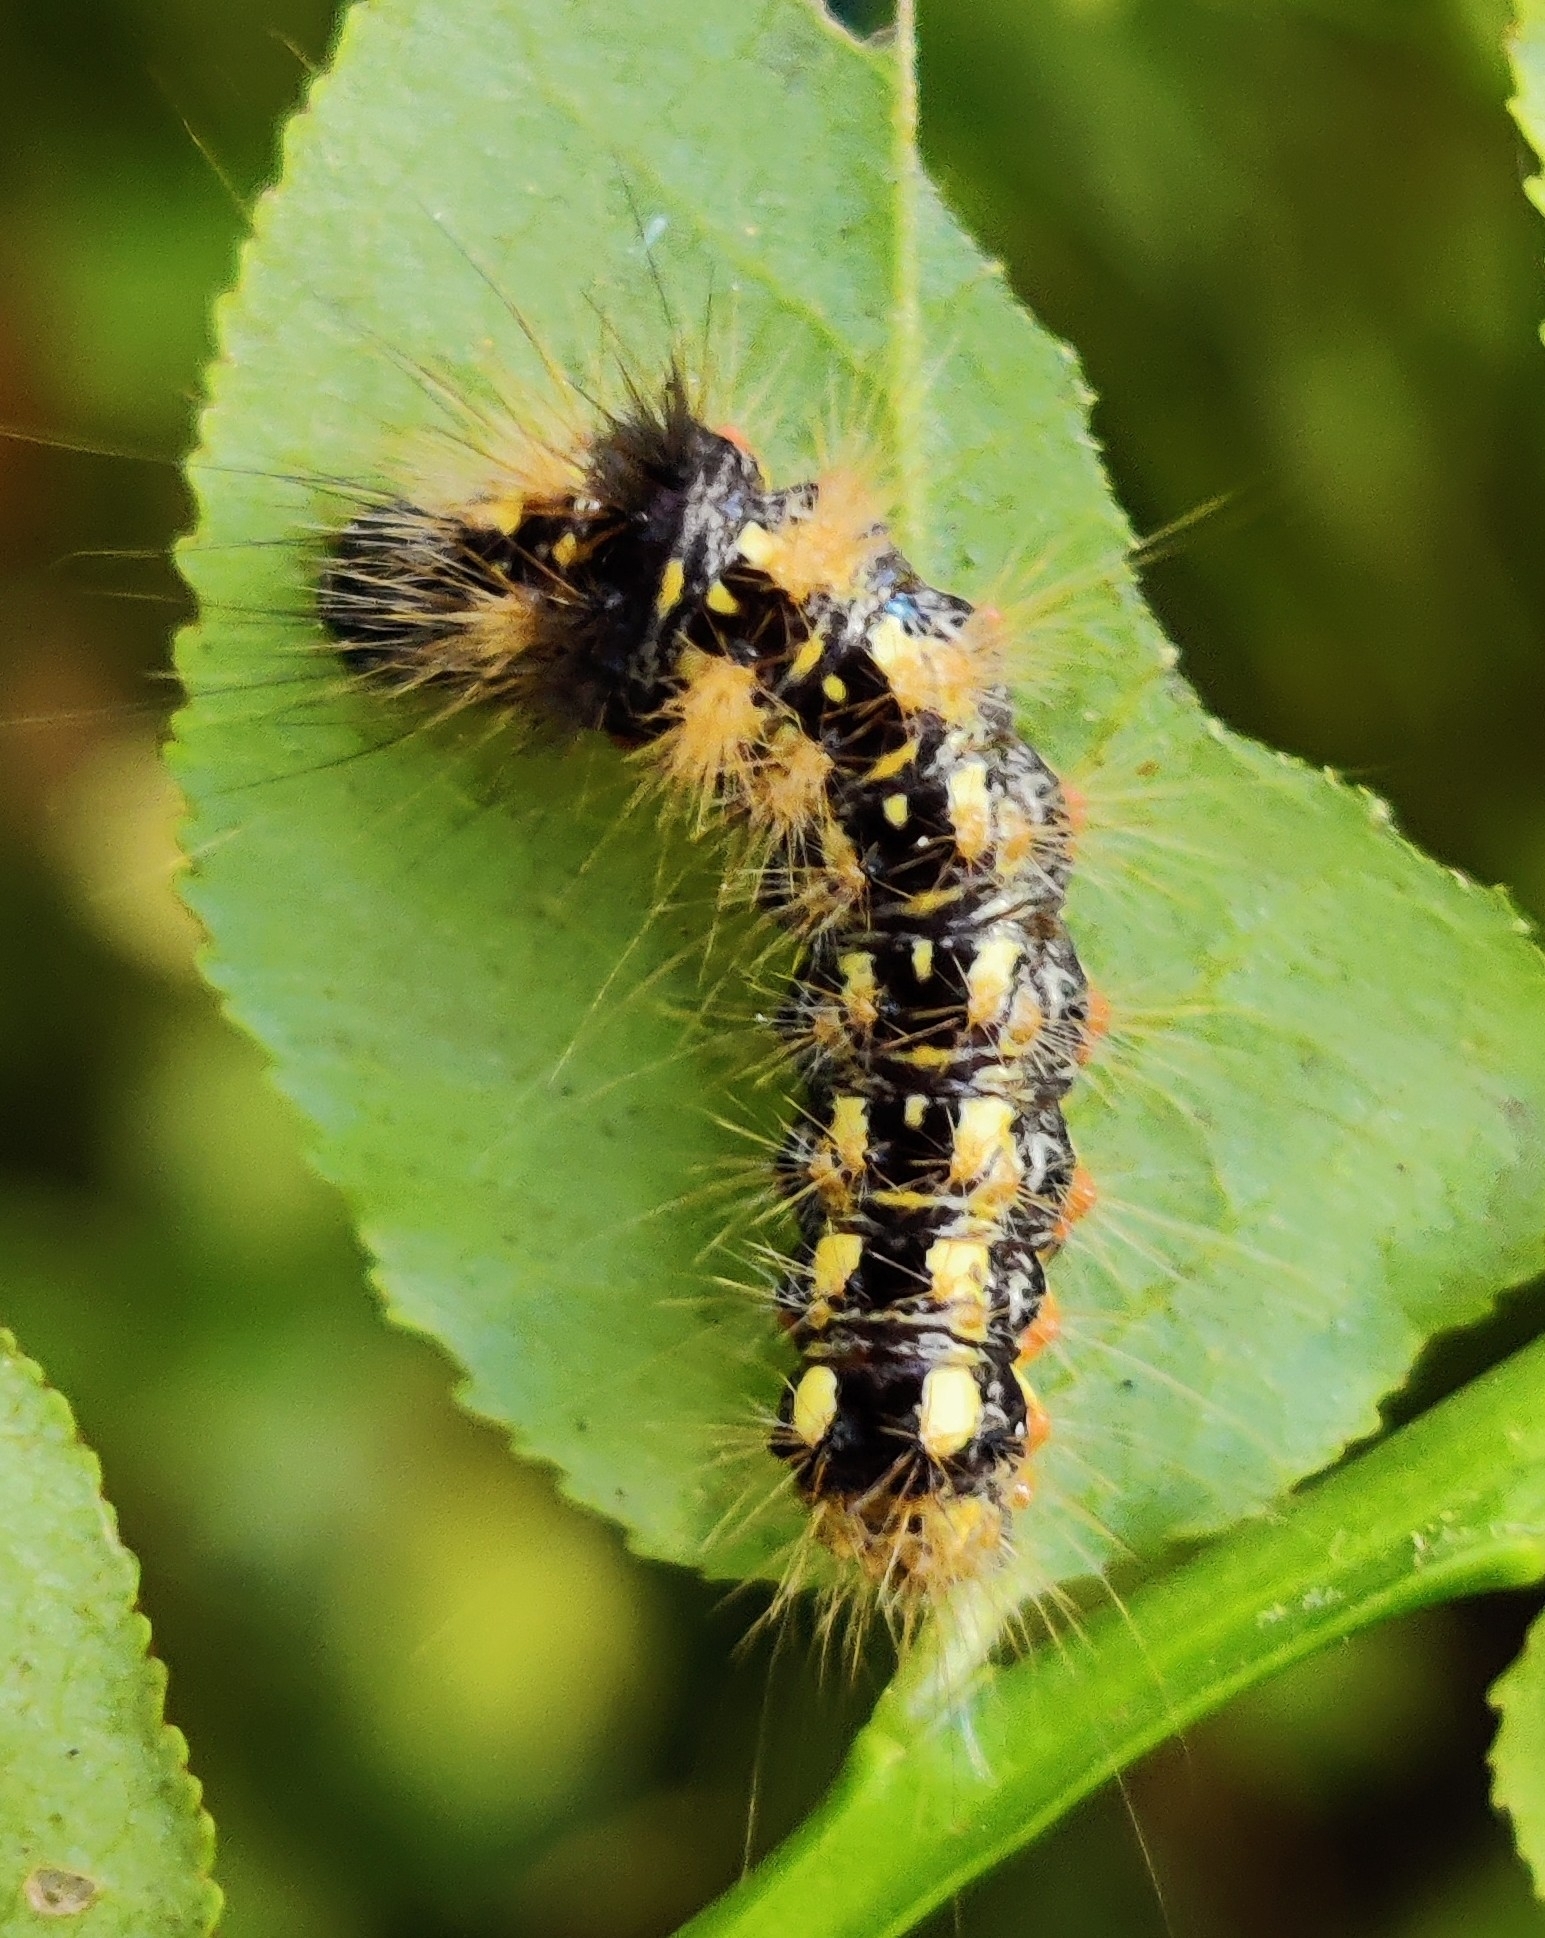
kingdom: Animalia
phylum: Arthropoda
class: Insecta
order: Lepidoptera
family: Noctuidae
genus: Acronicta
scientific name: Acronicta rumicis
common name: Knot grass
